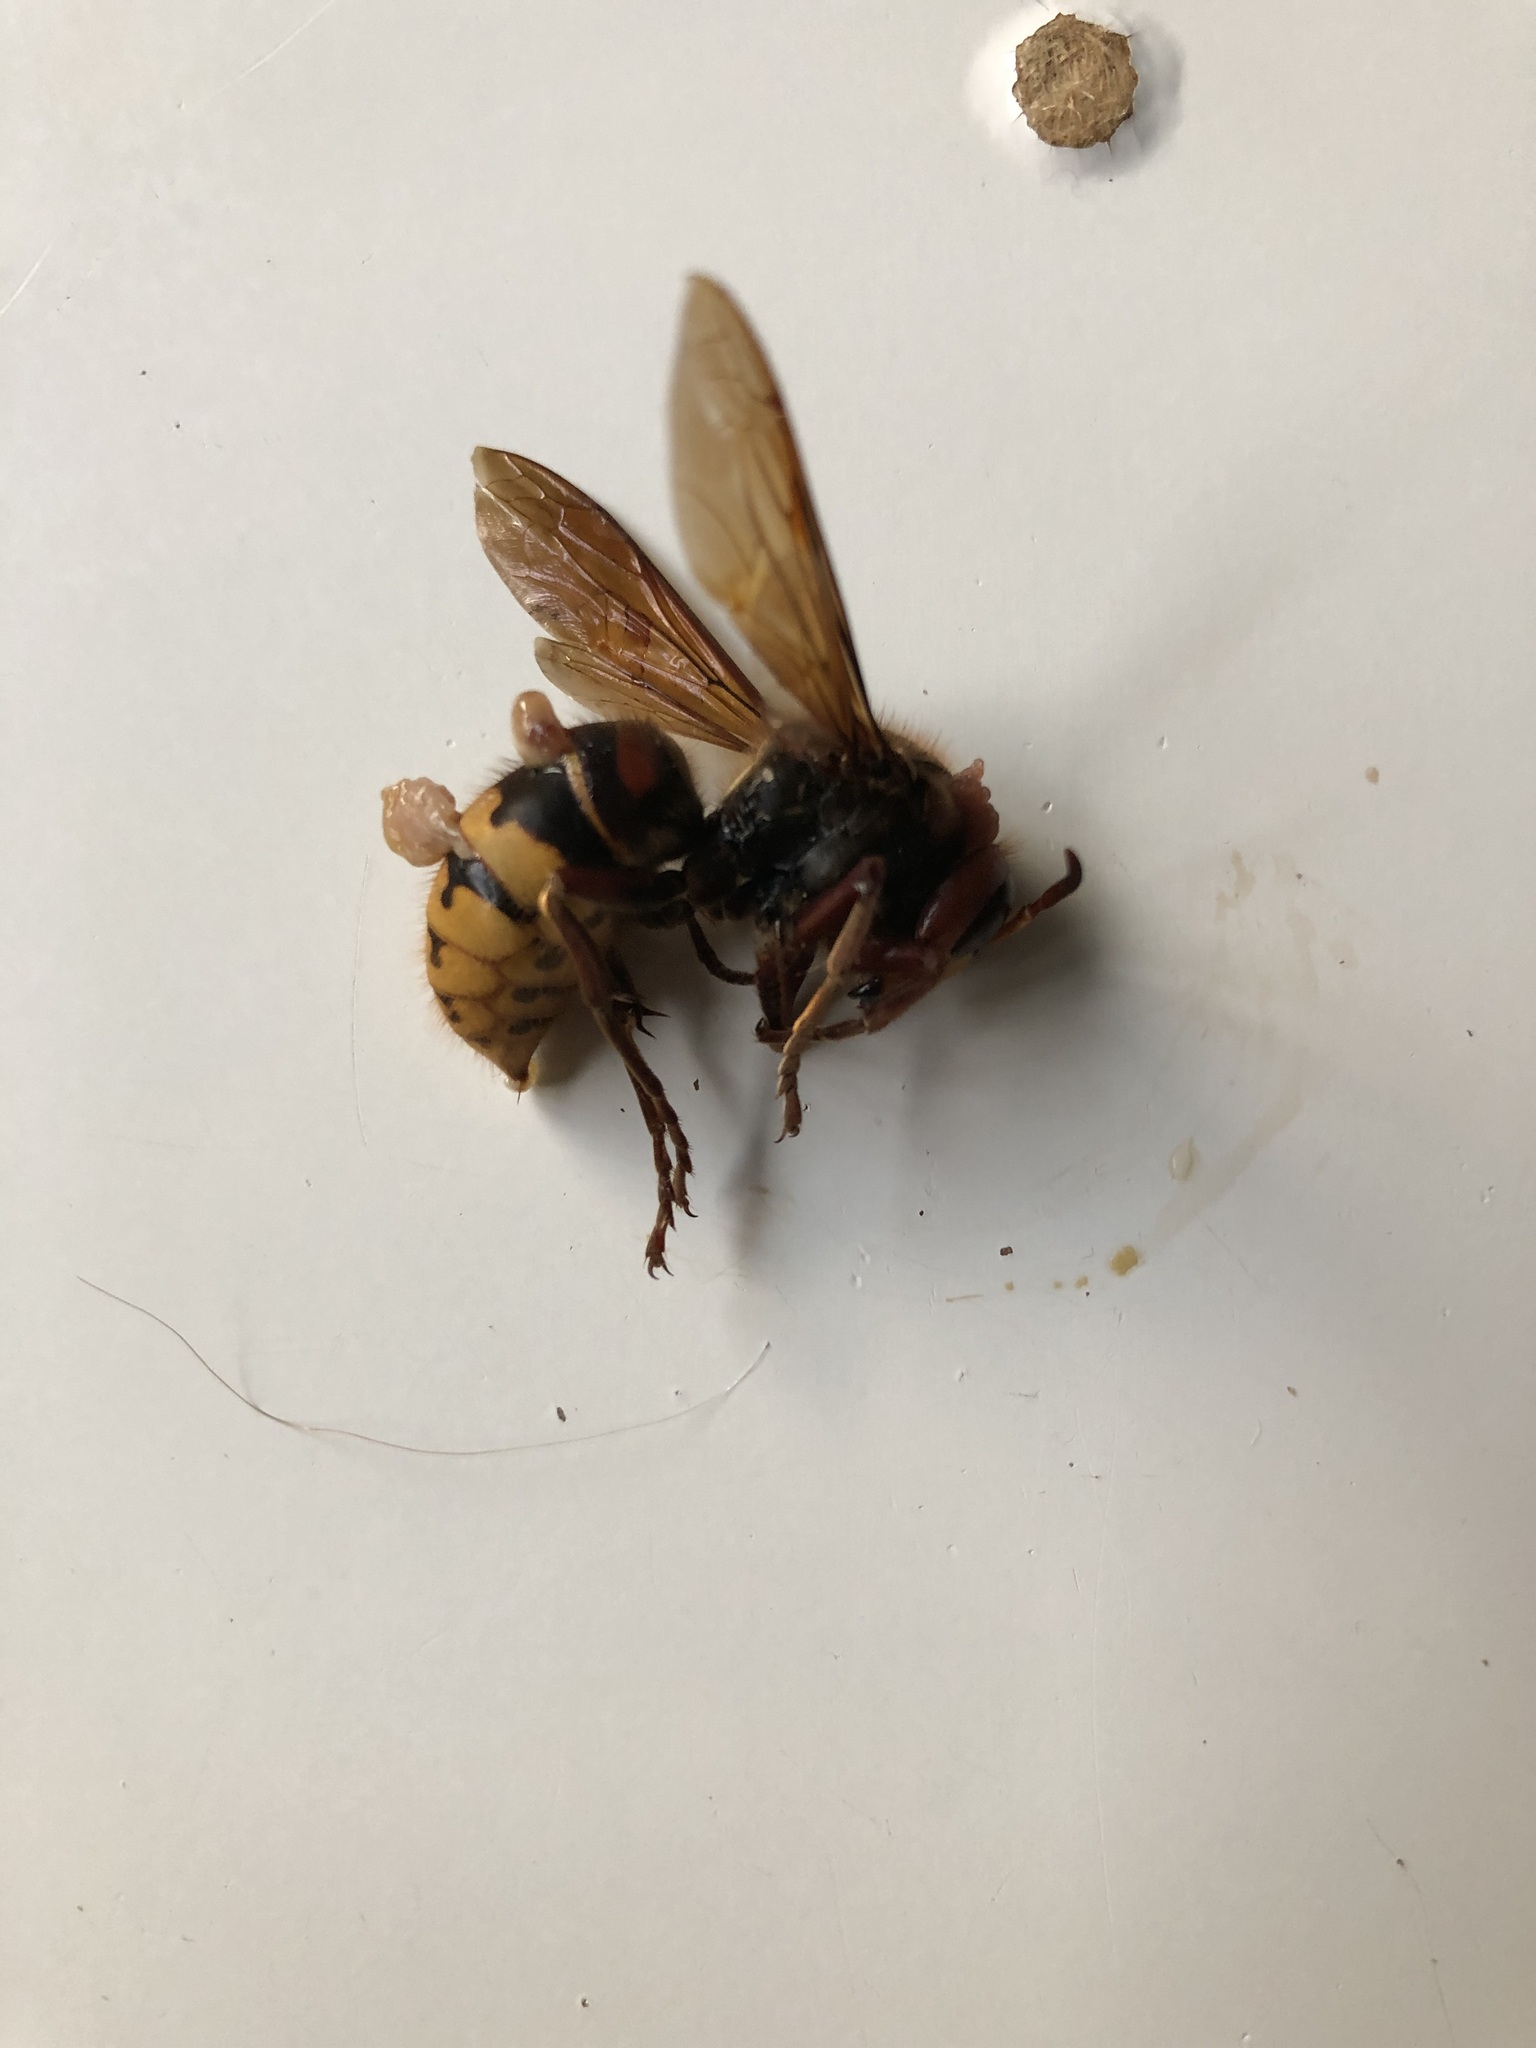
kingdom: Animalia
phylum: Arthropoda
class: Insecta
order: Hymenoptera
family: Vespidae
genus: Vespa
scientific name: Vespa crabro
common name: Hornet
